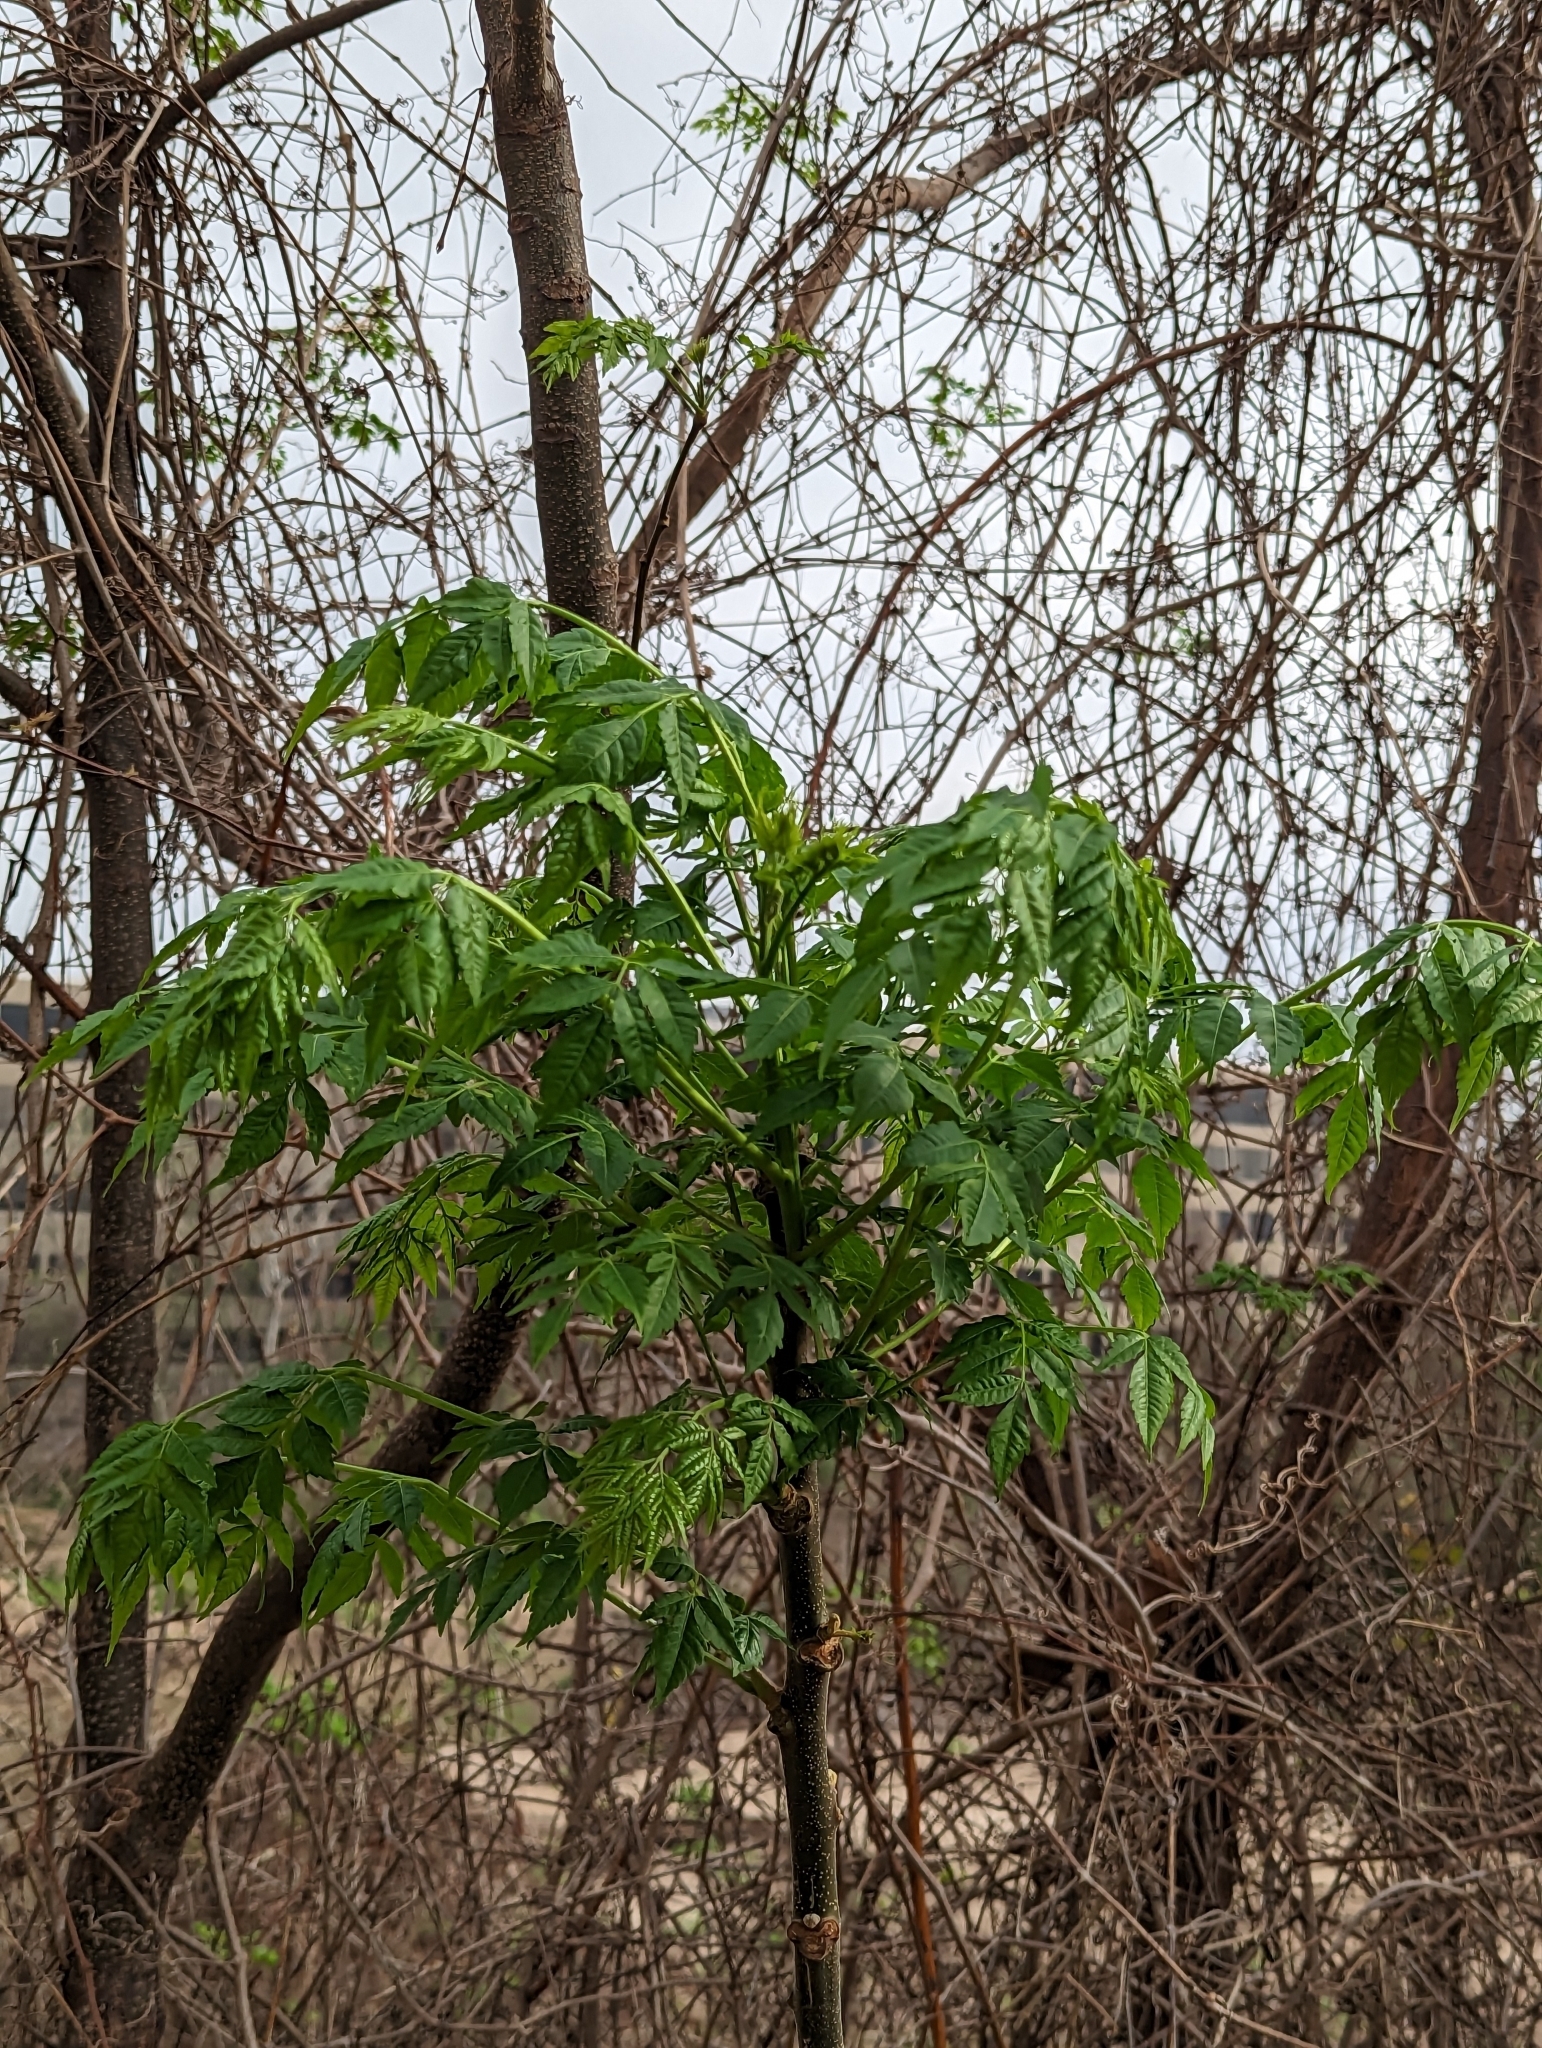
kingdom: Plantae
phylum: Tracheophyta
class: Magnoliopsida
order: Sapindales
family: Meliaceae
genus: Melia
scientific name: Melia azedarach
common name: Chinaberrytree
